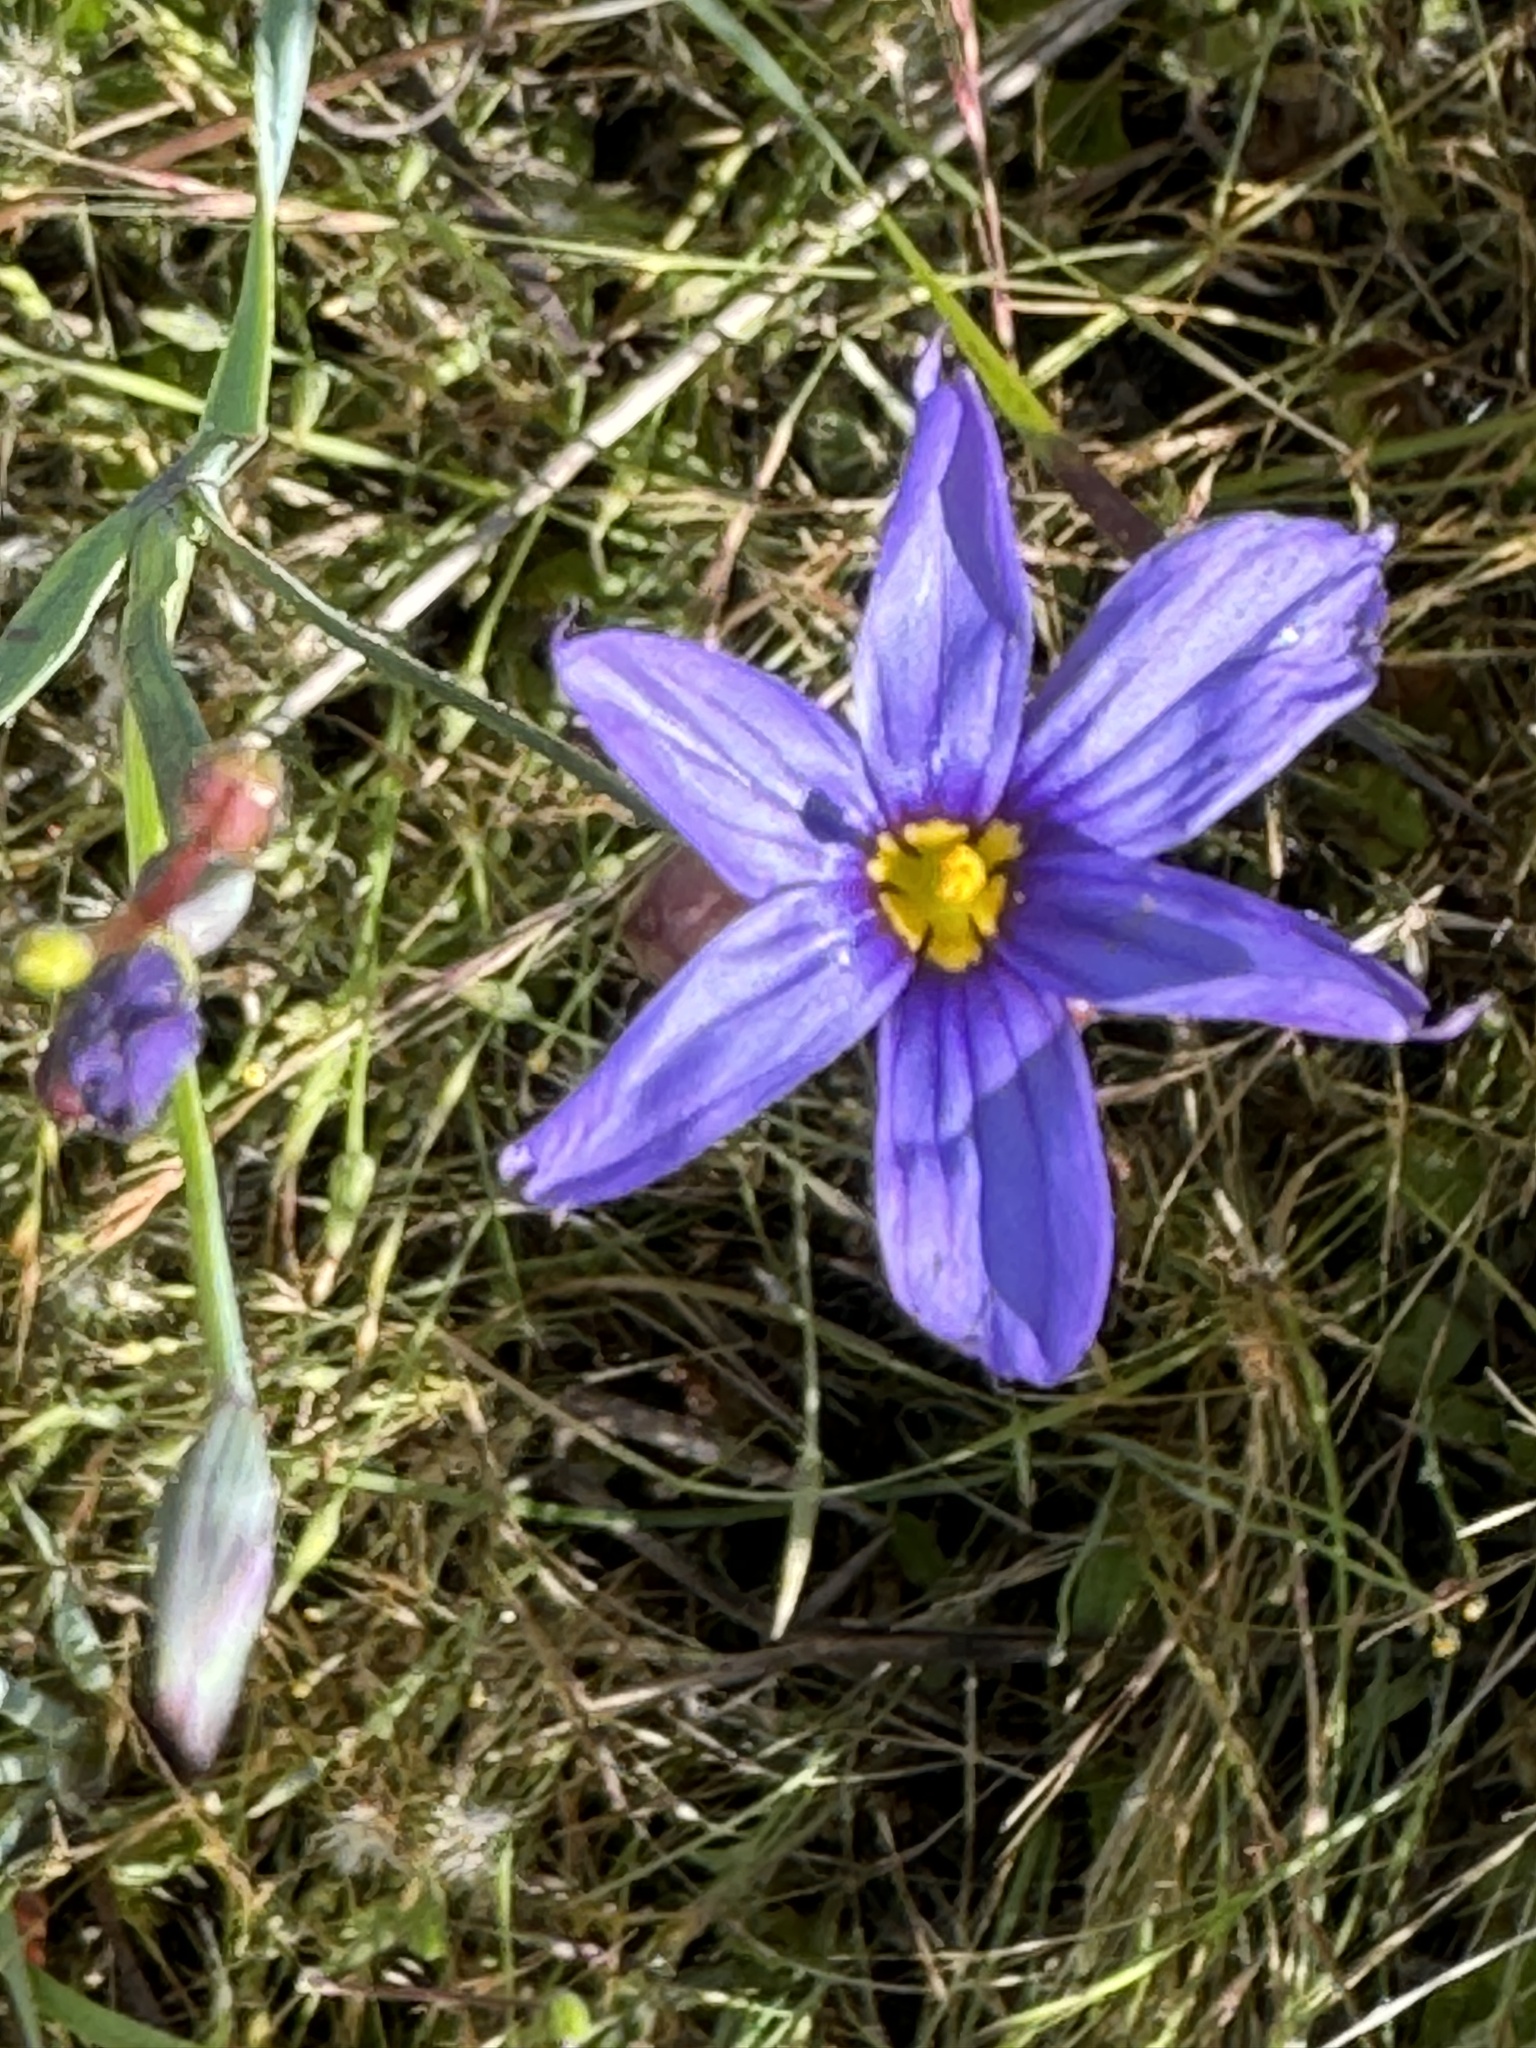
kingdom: Plantae
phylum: Tracheophyta
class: Liliopsida
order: Asparagales
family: Iridaceae
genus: Sisyrinchium
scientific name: Sisyrinchium bellum
